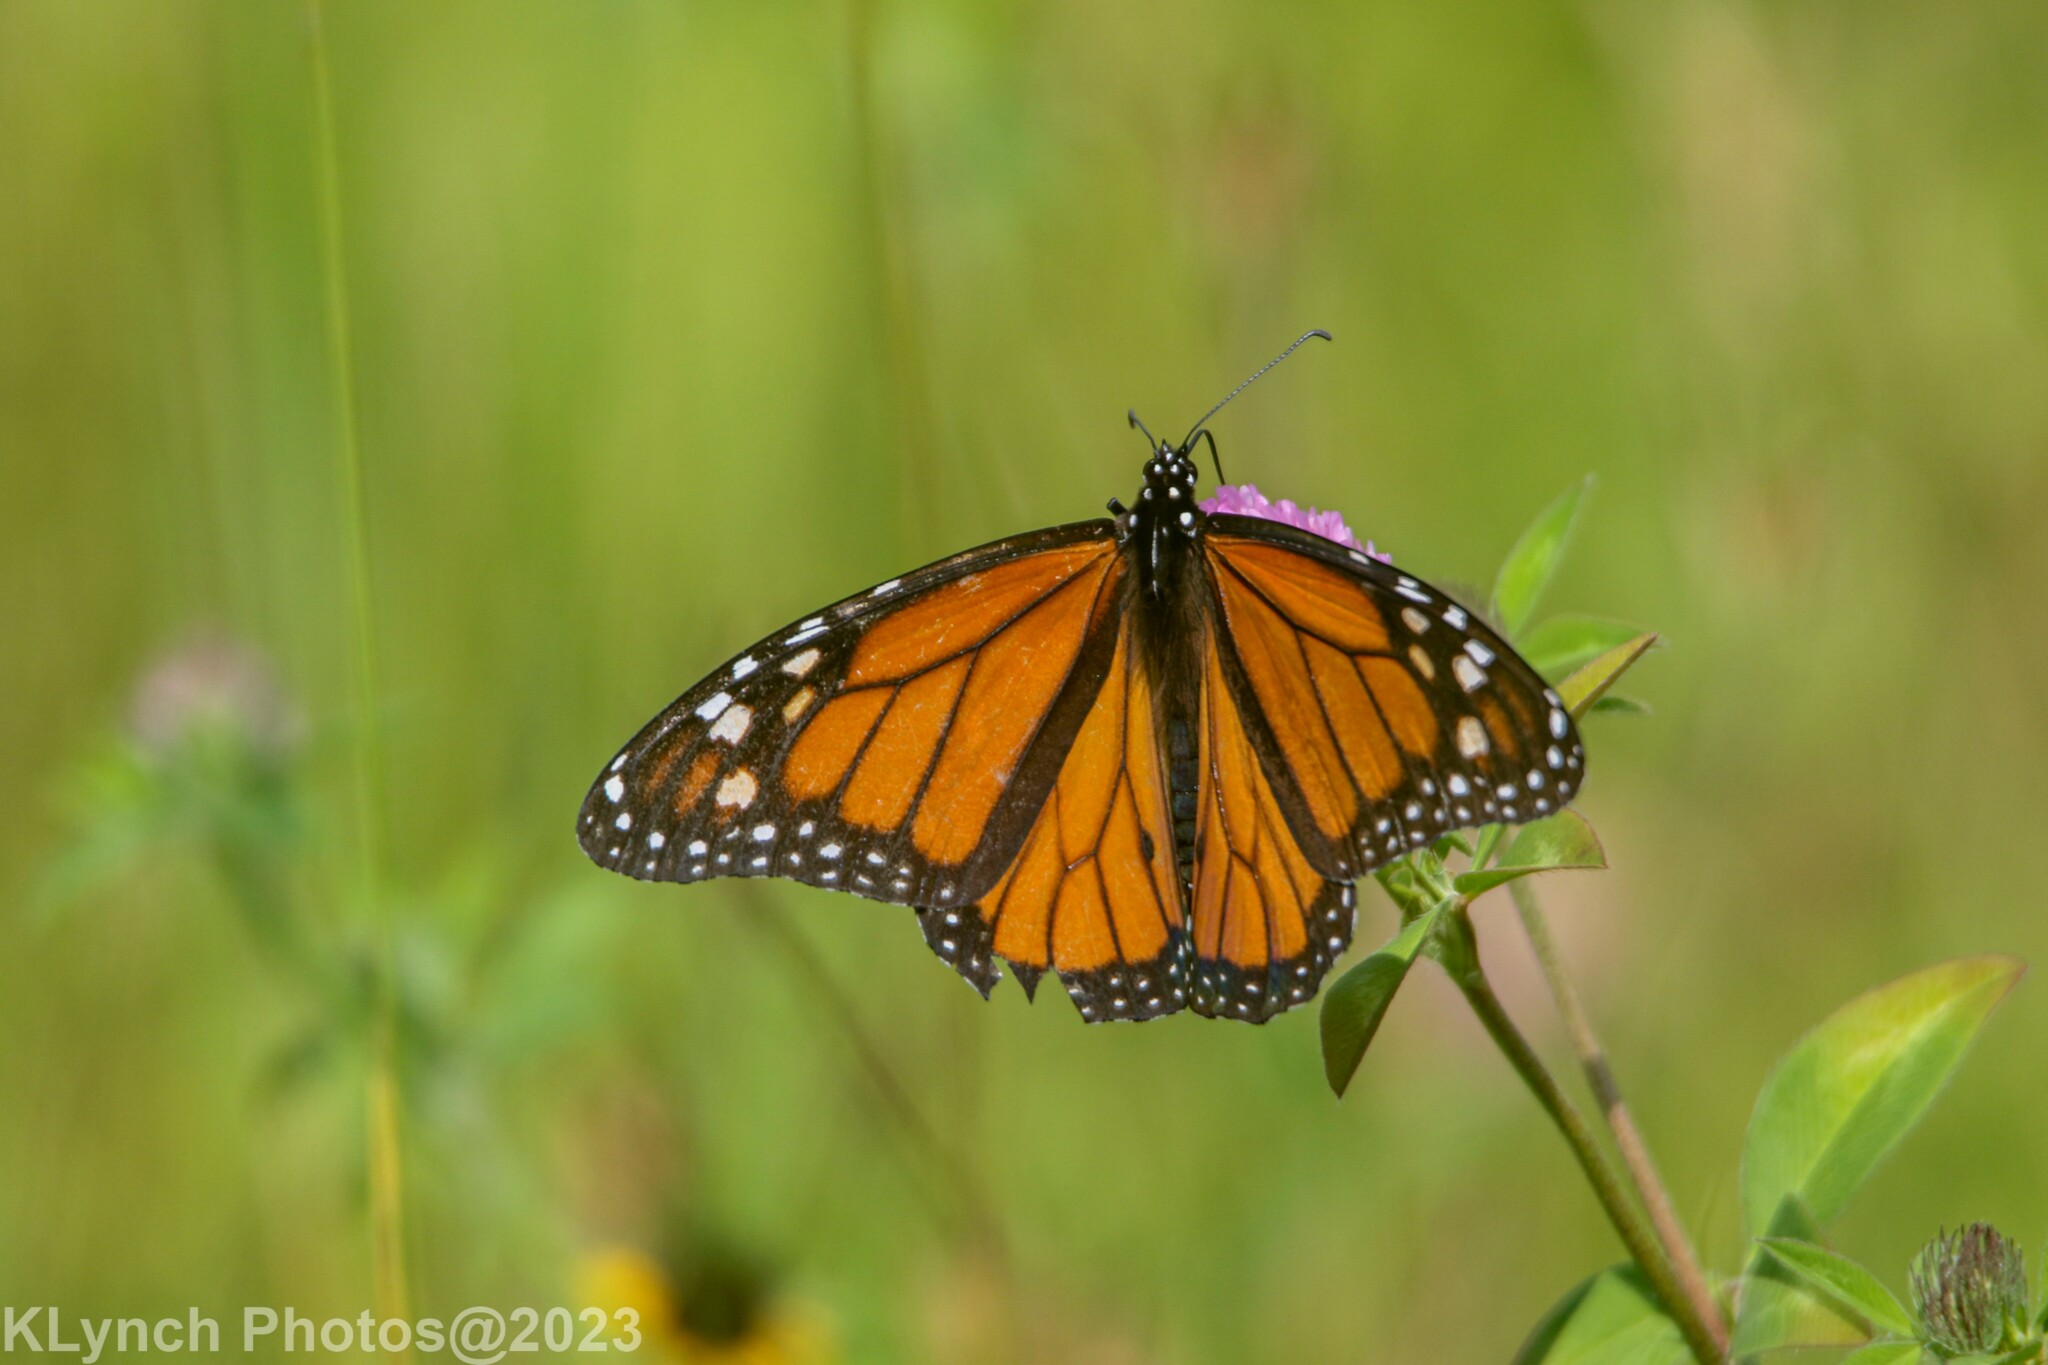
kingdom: Animalia
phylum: Arthropoda
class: Insecta
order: Lepidoptera
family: Nymphalidae
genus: Danaus
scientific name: Danaus plexippus
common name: Monarch
